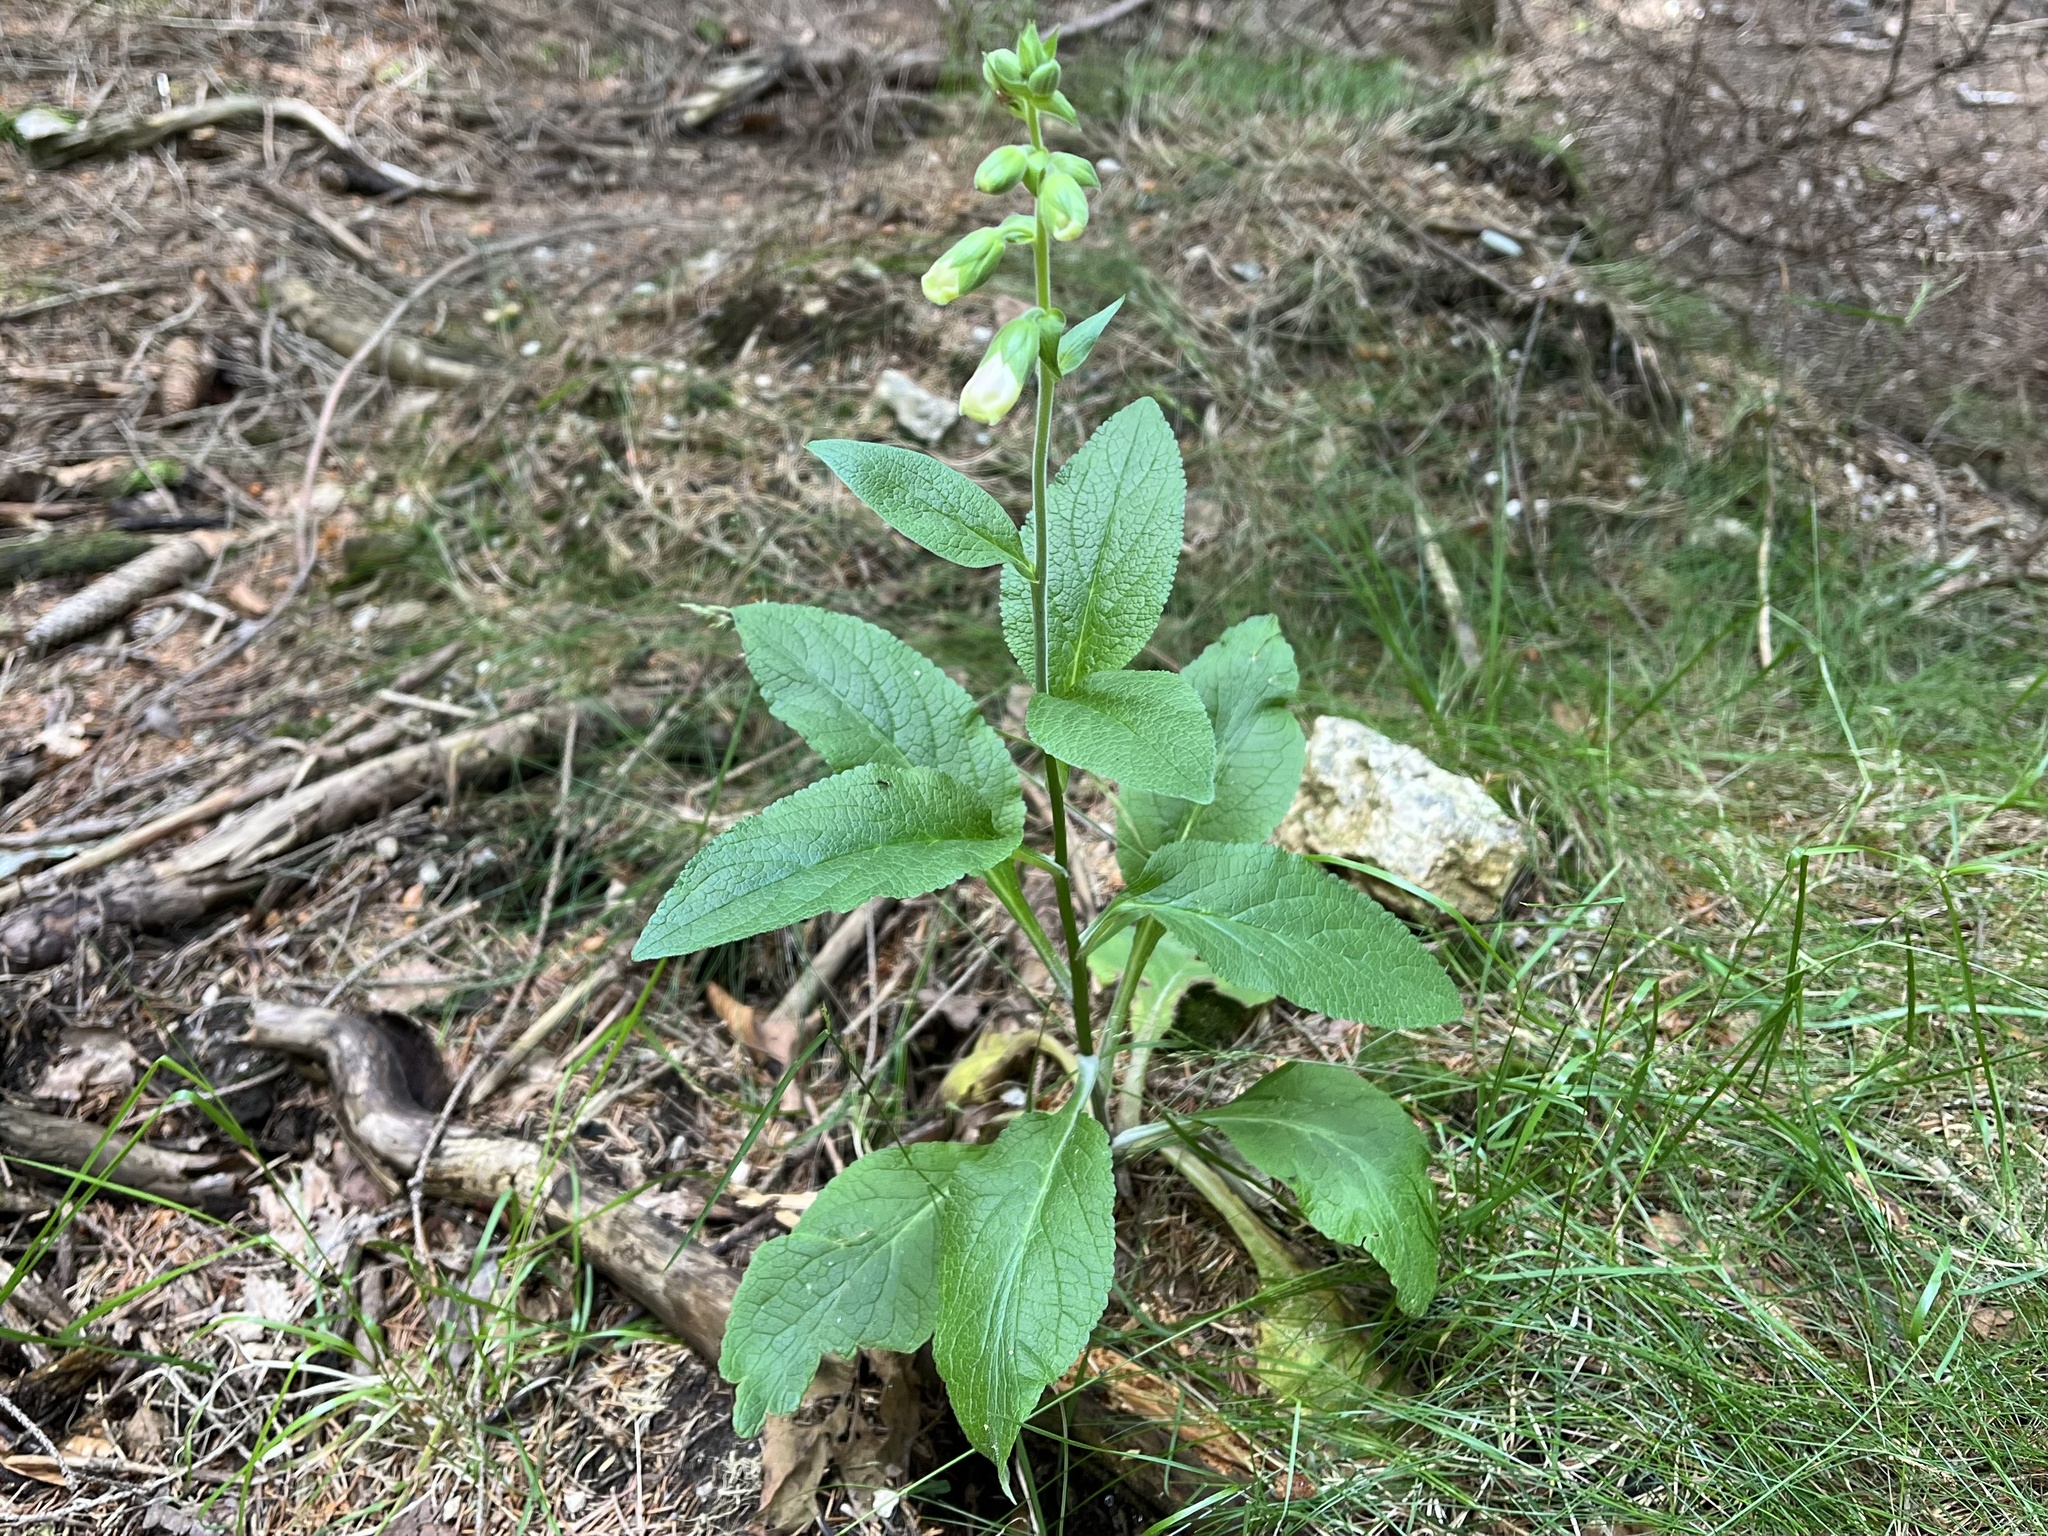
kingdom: Plantae
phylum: Tracheophyta
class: Magnoliopsida
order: Lamiales
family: Plantaginaceae
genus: Digitalis
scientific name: Digitalis grandiflora
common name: Yellow foxglove
